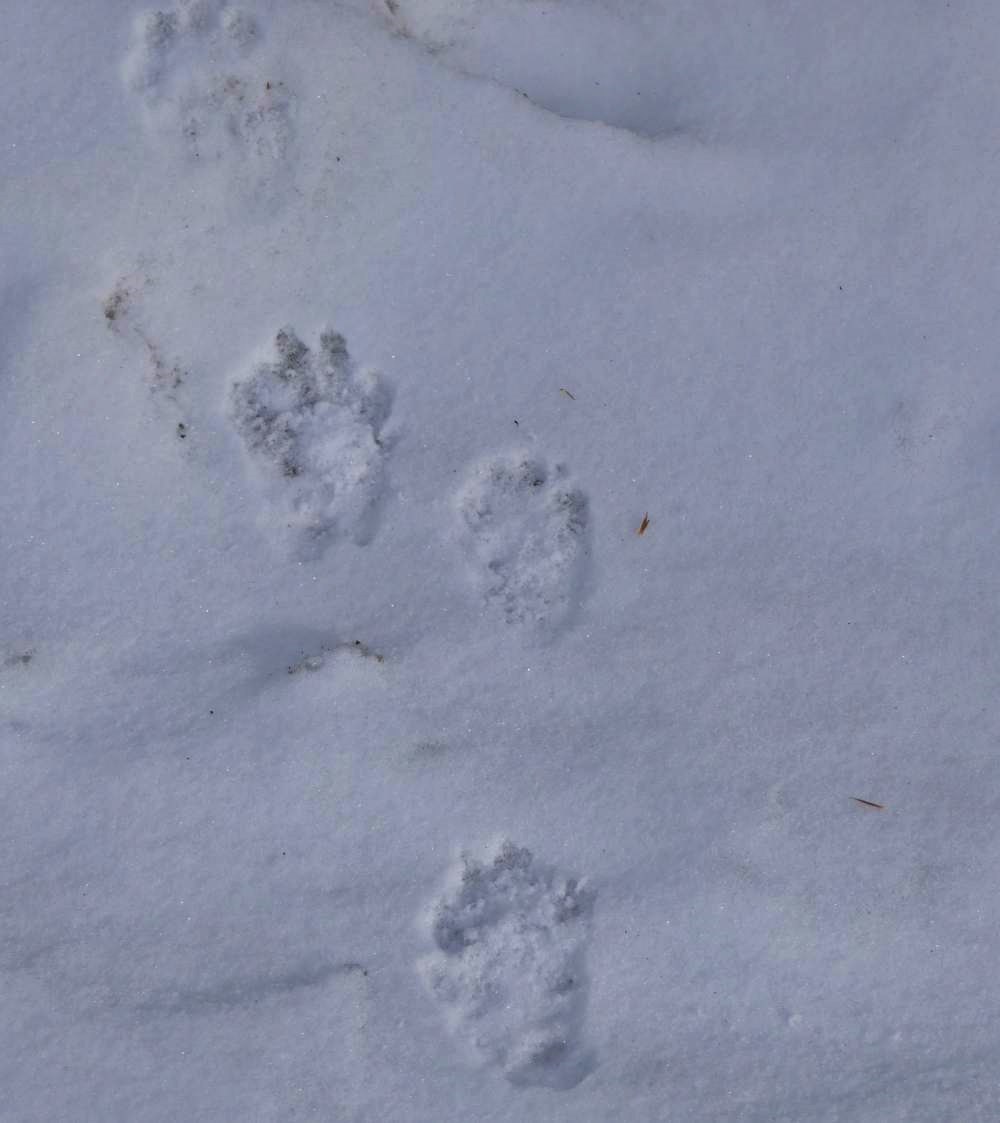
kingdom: Animalia
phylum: Chordata
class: Mammalia
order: Carnivora
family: Mustelidae
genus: Pekania
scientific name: Pekania pennanti
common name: Fisher
